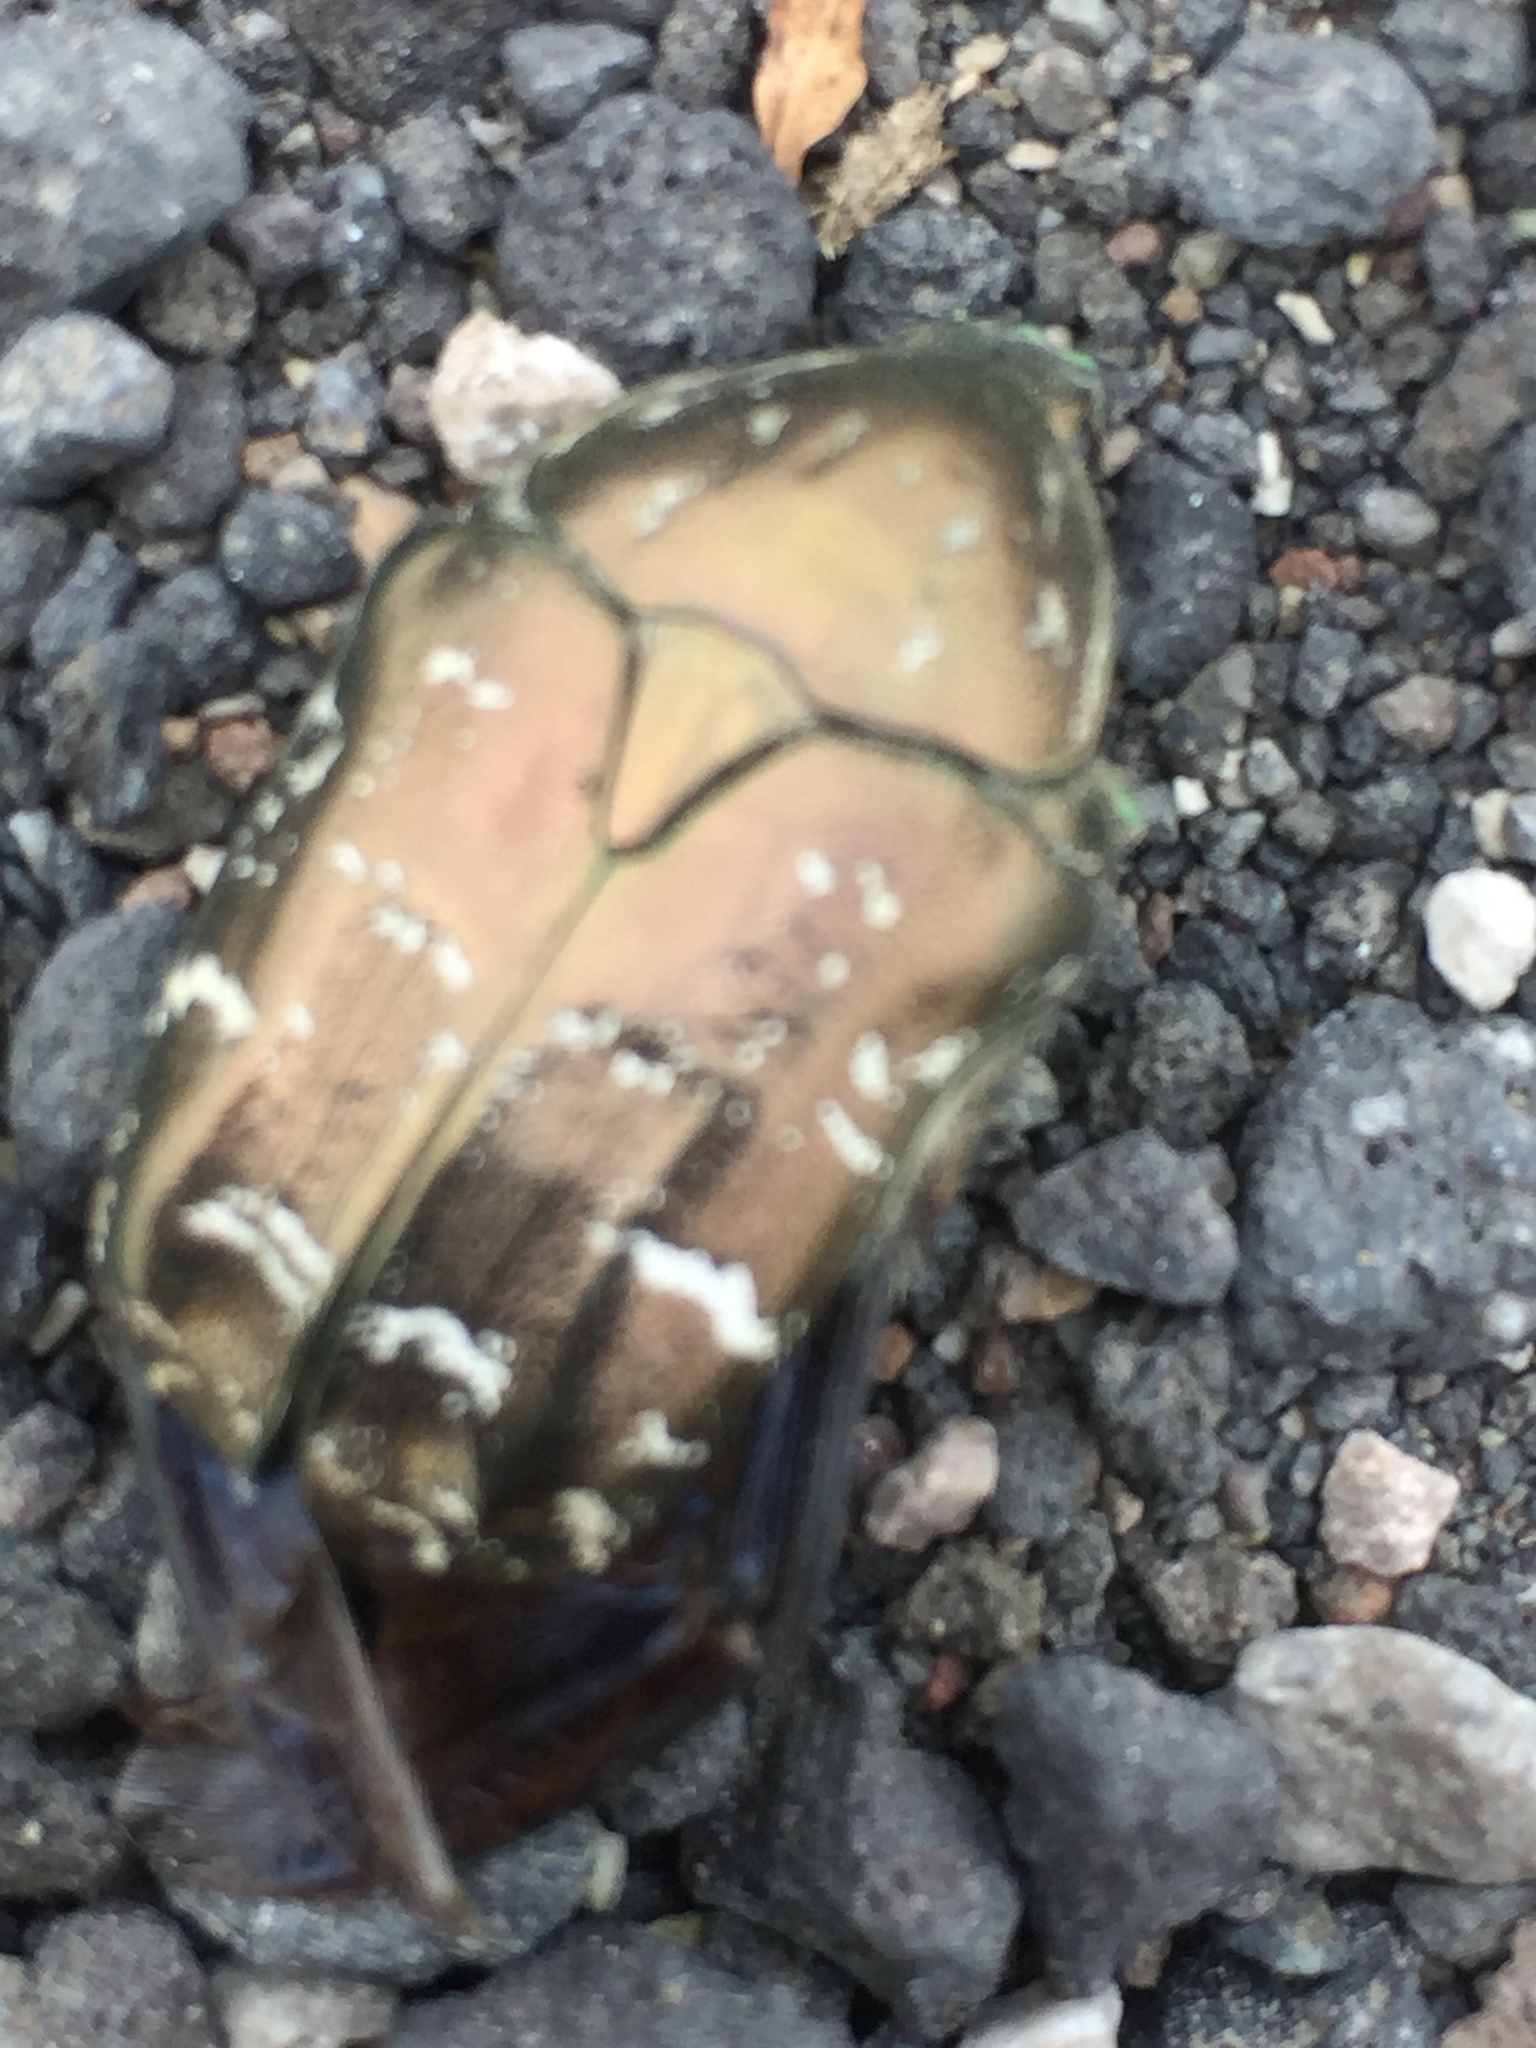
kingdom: Animalia
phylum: Arthropoda
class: Insecta
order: Coleoptera
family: Scarabaeidae
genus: Protaetia
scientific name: Protaetia cuprea
